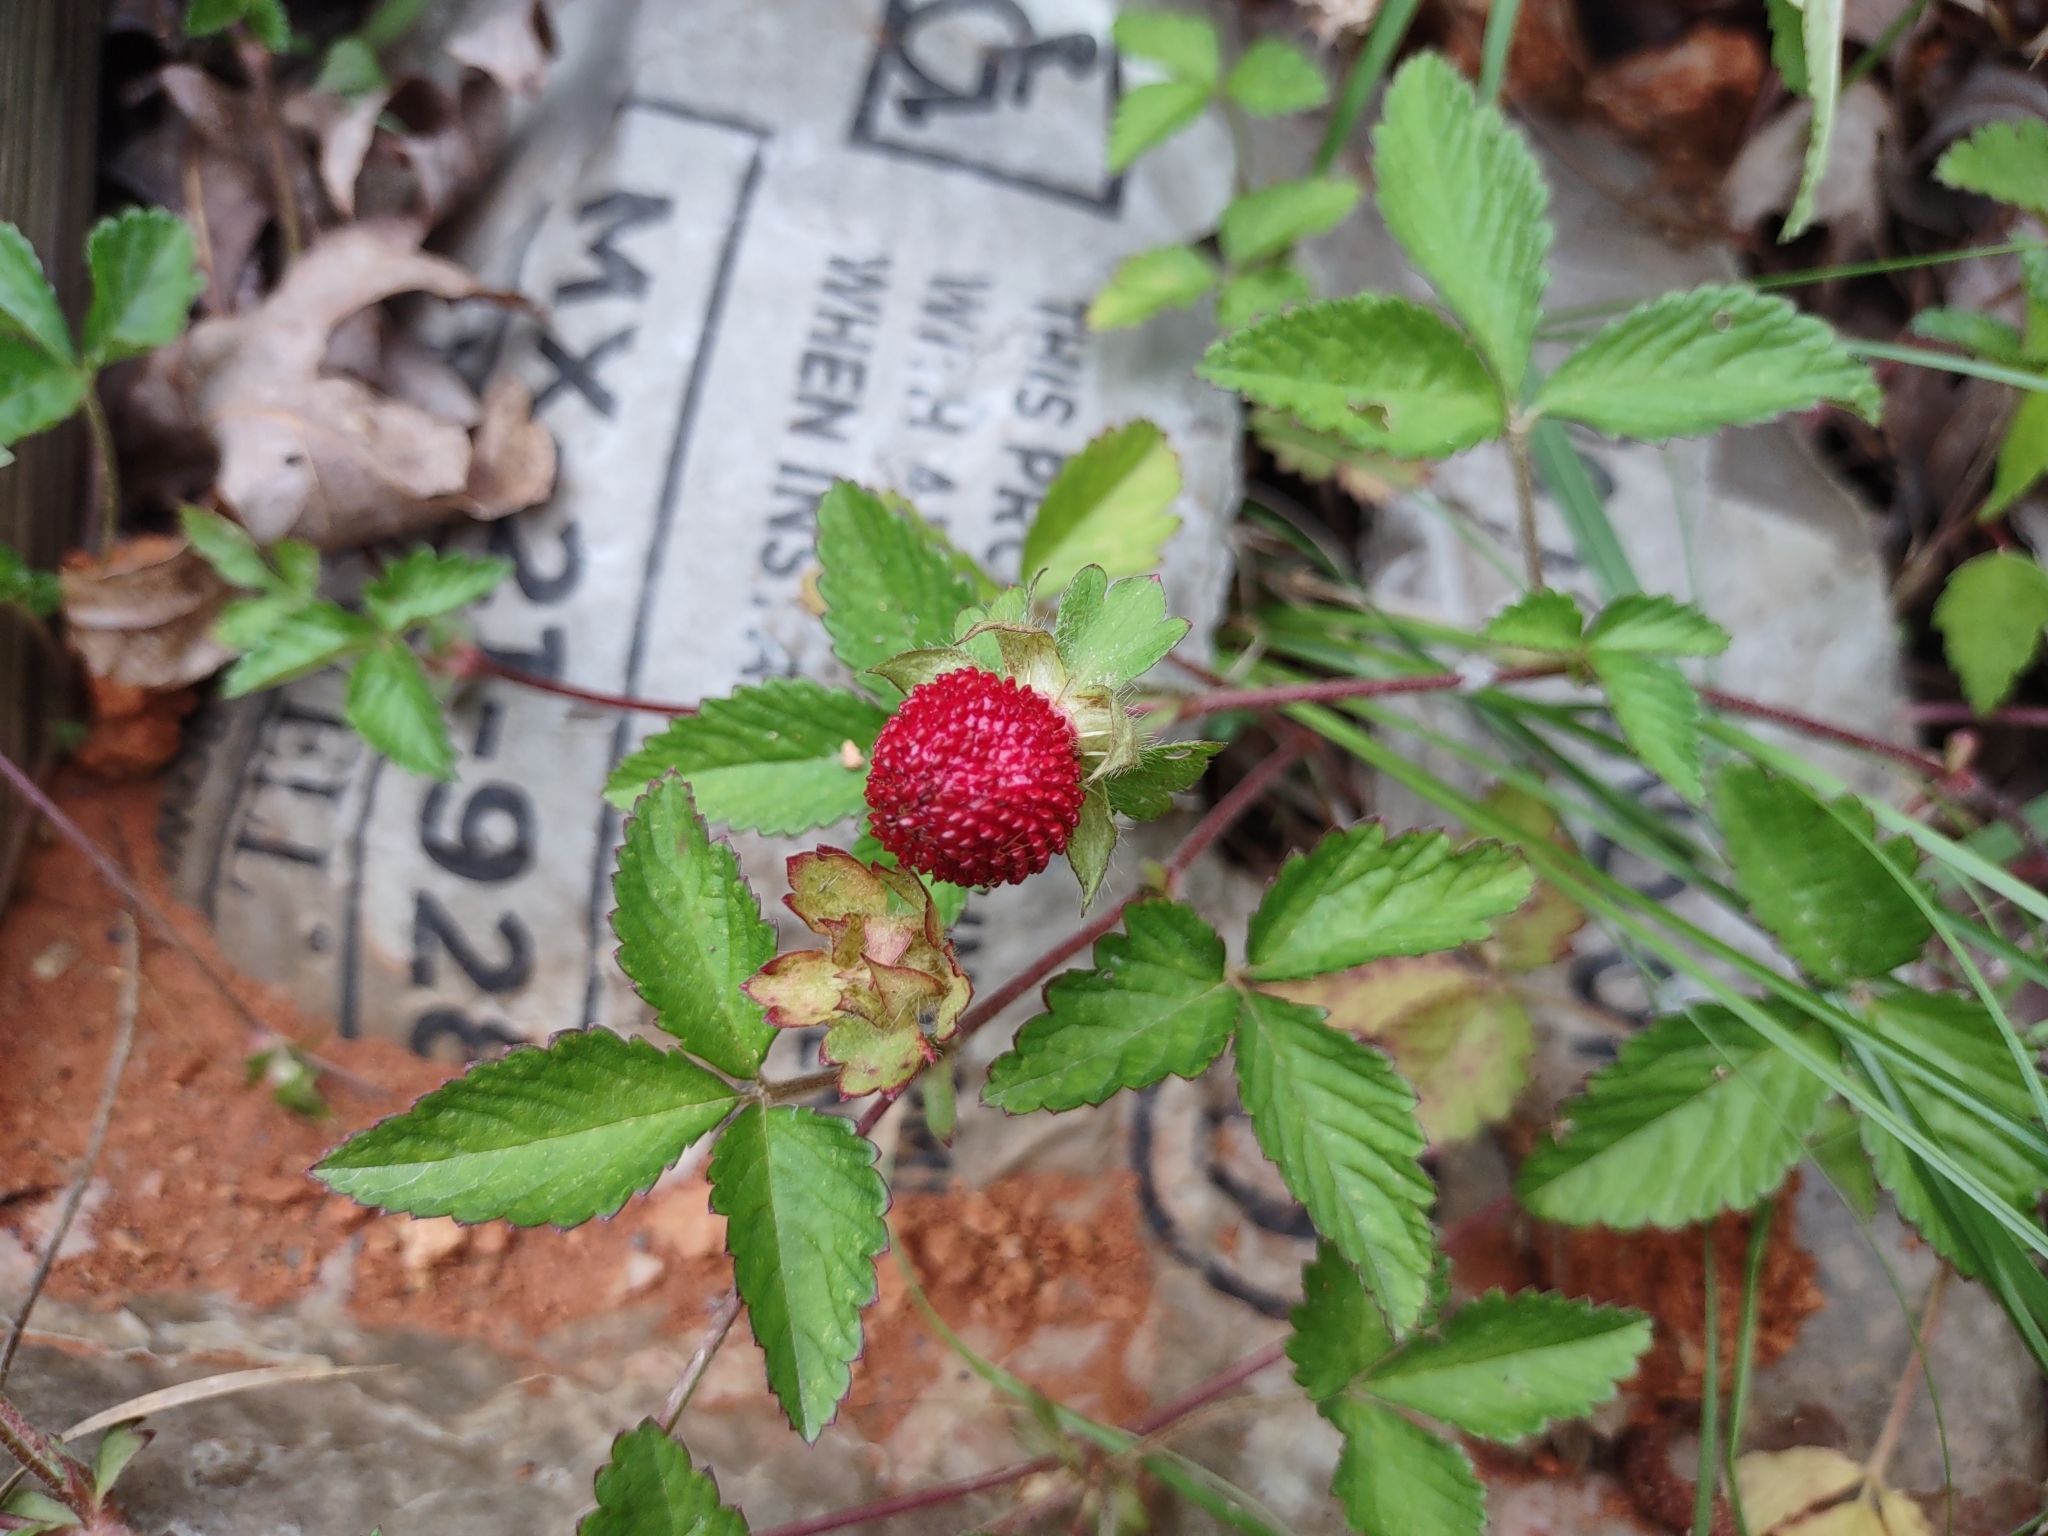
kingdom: Plantae
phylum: Tracheophyta
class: Magnoliopsida
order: Rosales
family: Rosaceae
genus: Potentilla
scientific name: Potentilla indica
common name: Yellow-flowered strawberry
